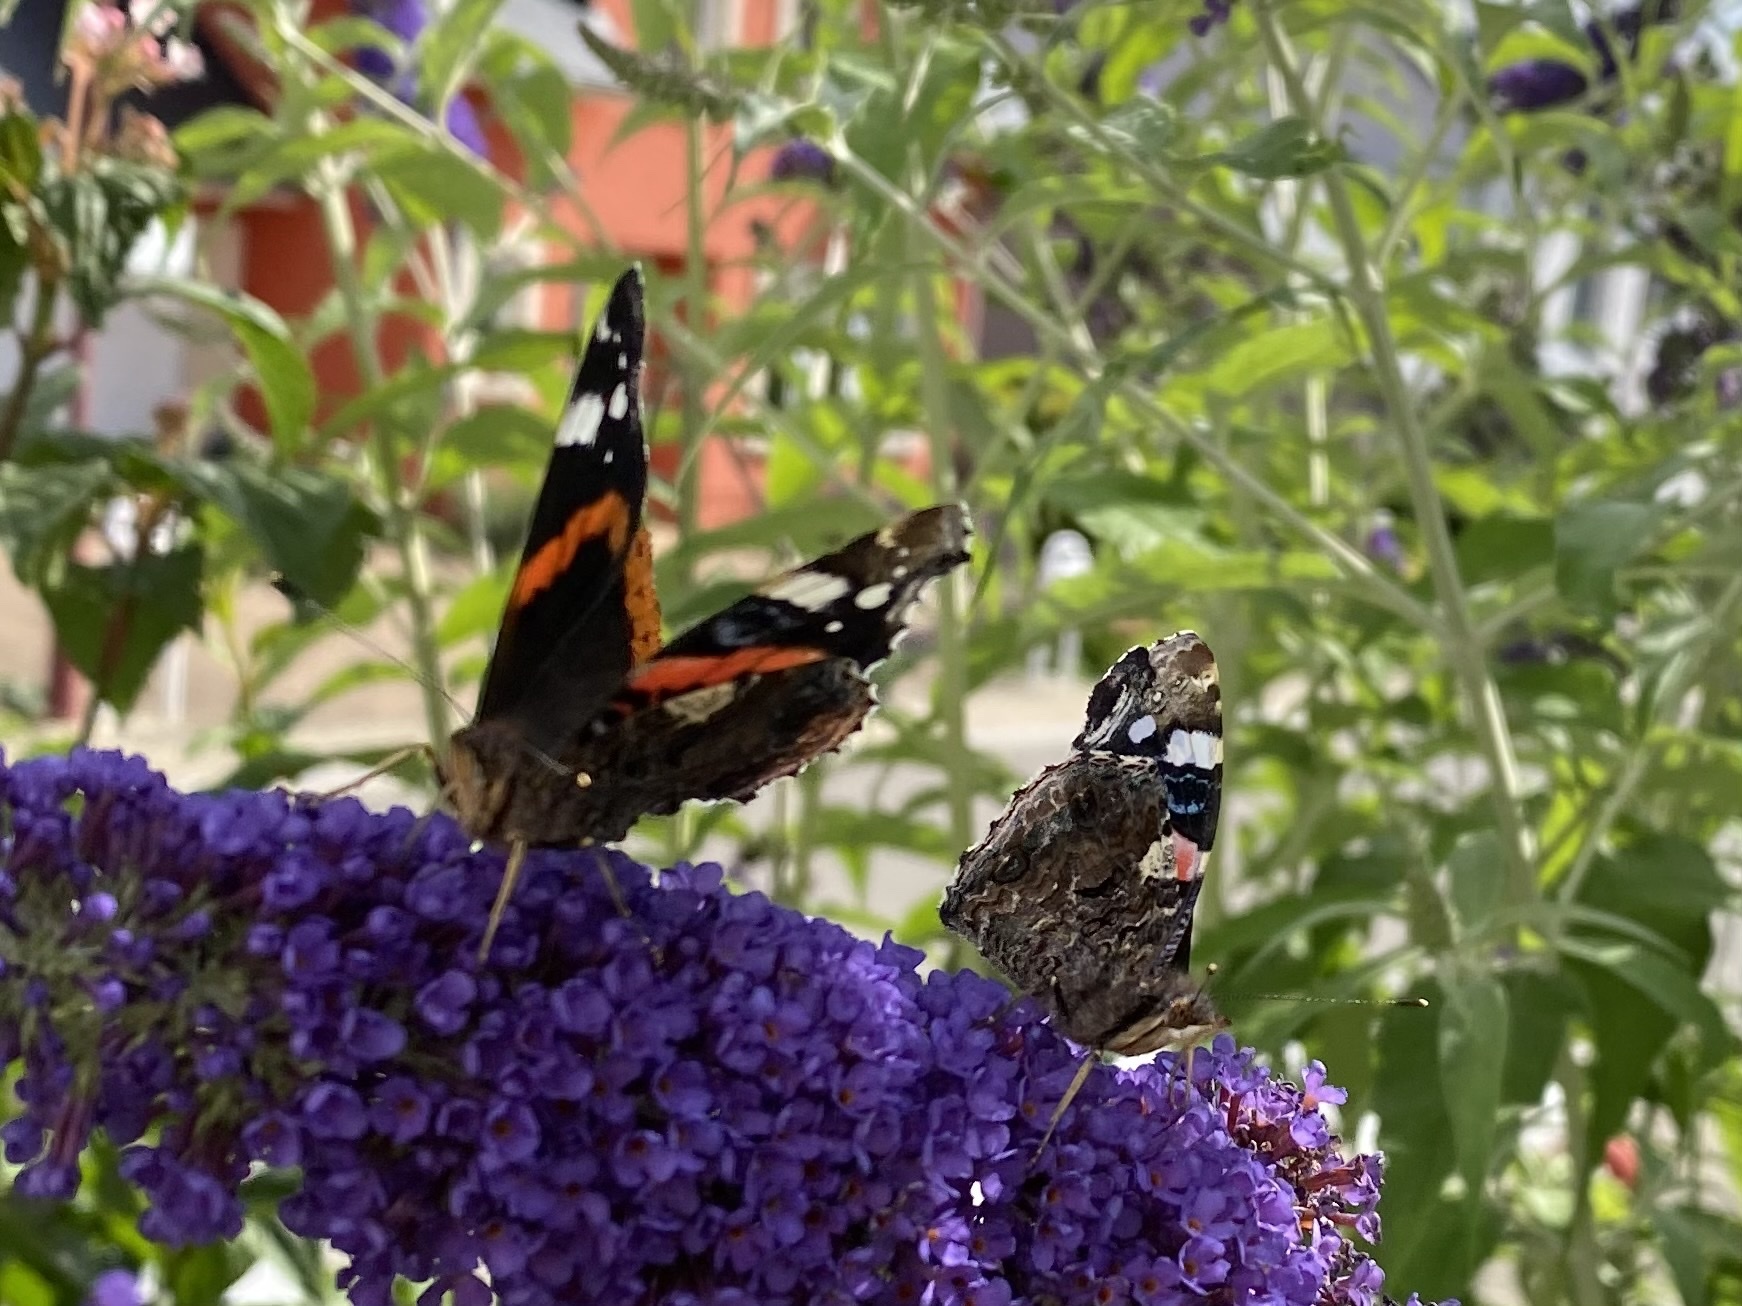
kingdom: Animalia
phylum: Arthropoda
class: Insecta
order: Lepidoptera
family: Nymphalidae
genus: Vanessa
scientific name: Vanessa atalanta
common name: Red admiral
